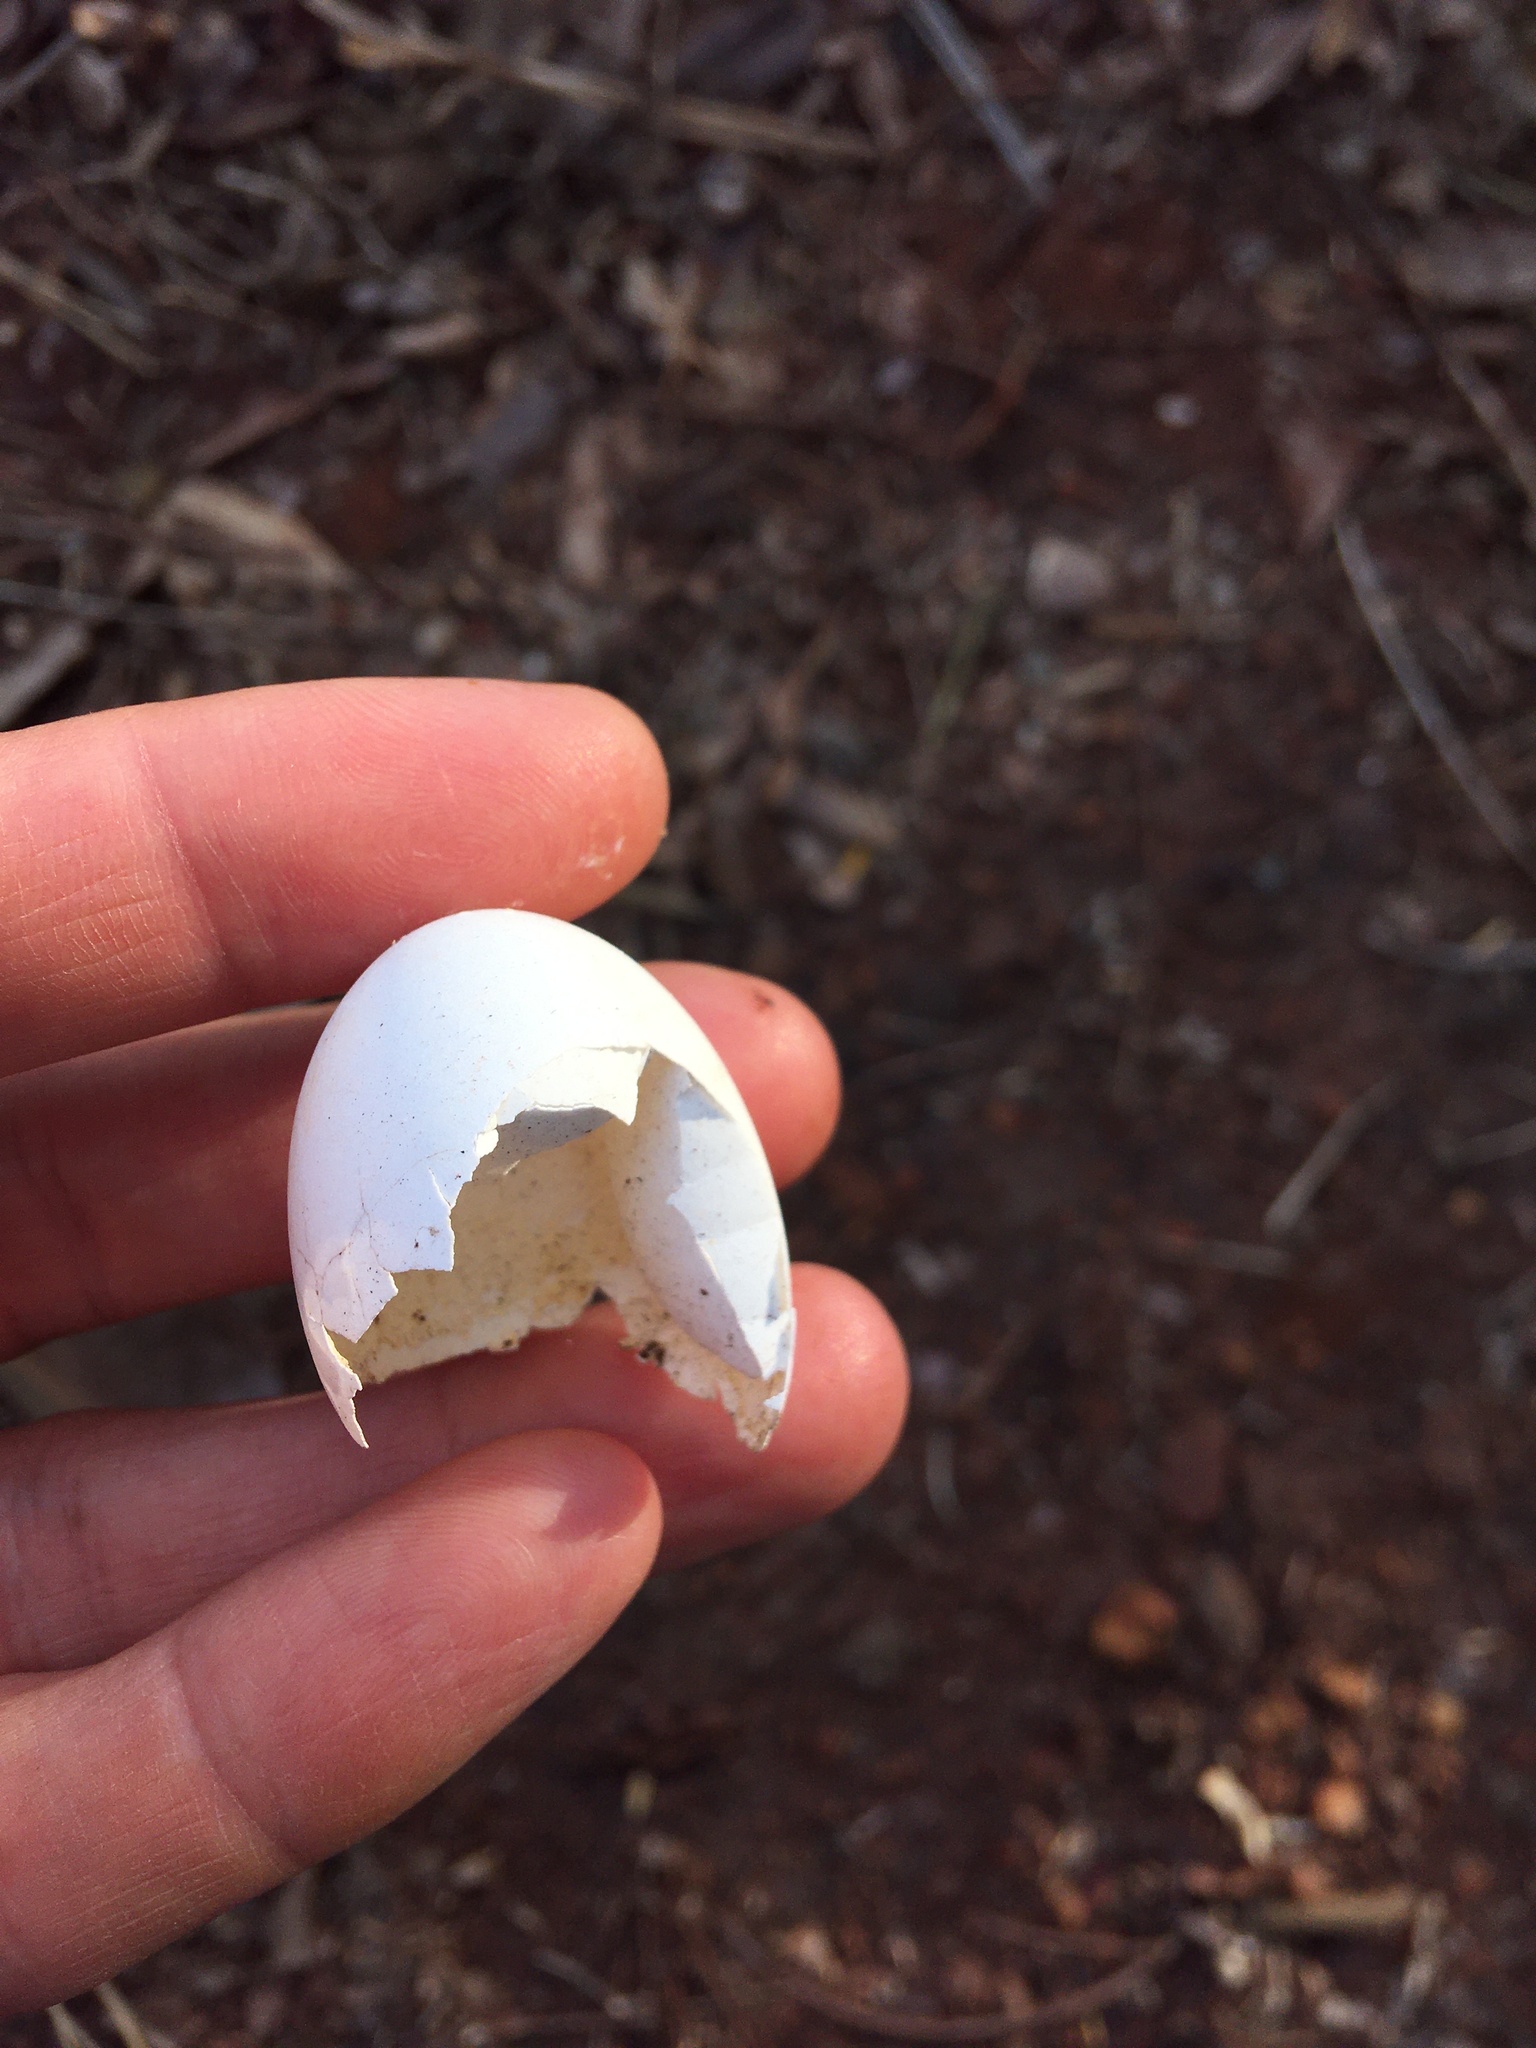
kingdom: Animalia
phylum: Chordata
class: Aves
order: Columbiformes
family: Columbidae
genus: Patagioenas
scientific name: Patagioenas picazuro
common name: Picazuro pigeon
